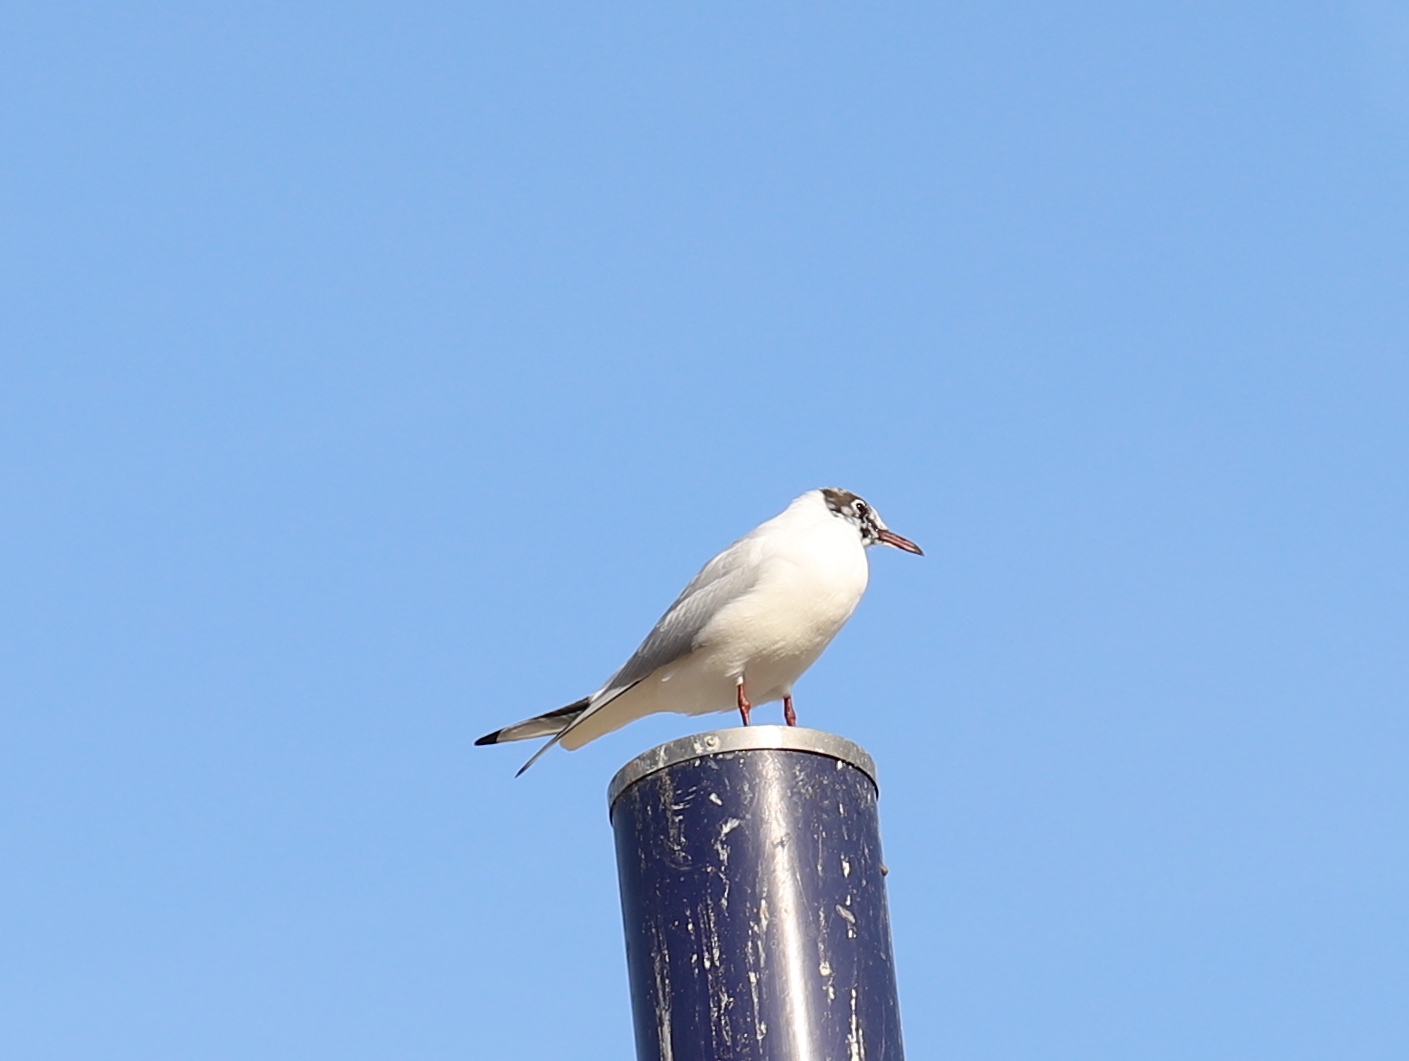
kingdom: Animalia
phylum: Chordata
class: Aves
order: Charadriiformes
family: Laridae
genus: Chroicocephalus
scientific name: Chroicocephalus ridibundus
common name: Black-headed gull
